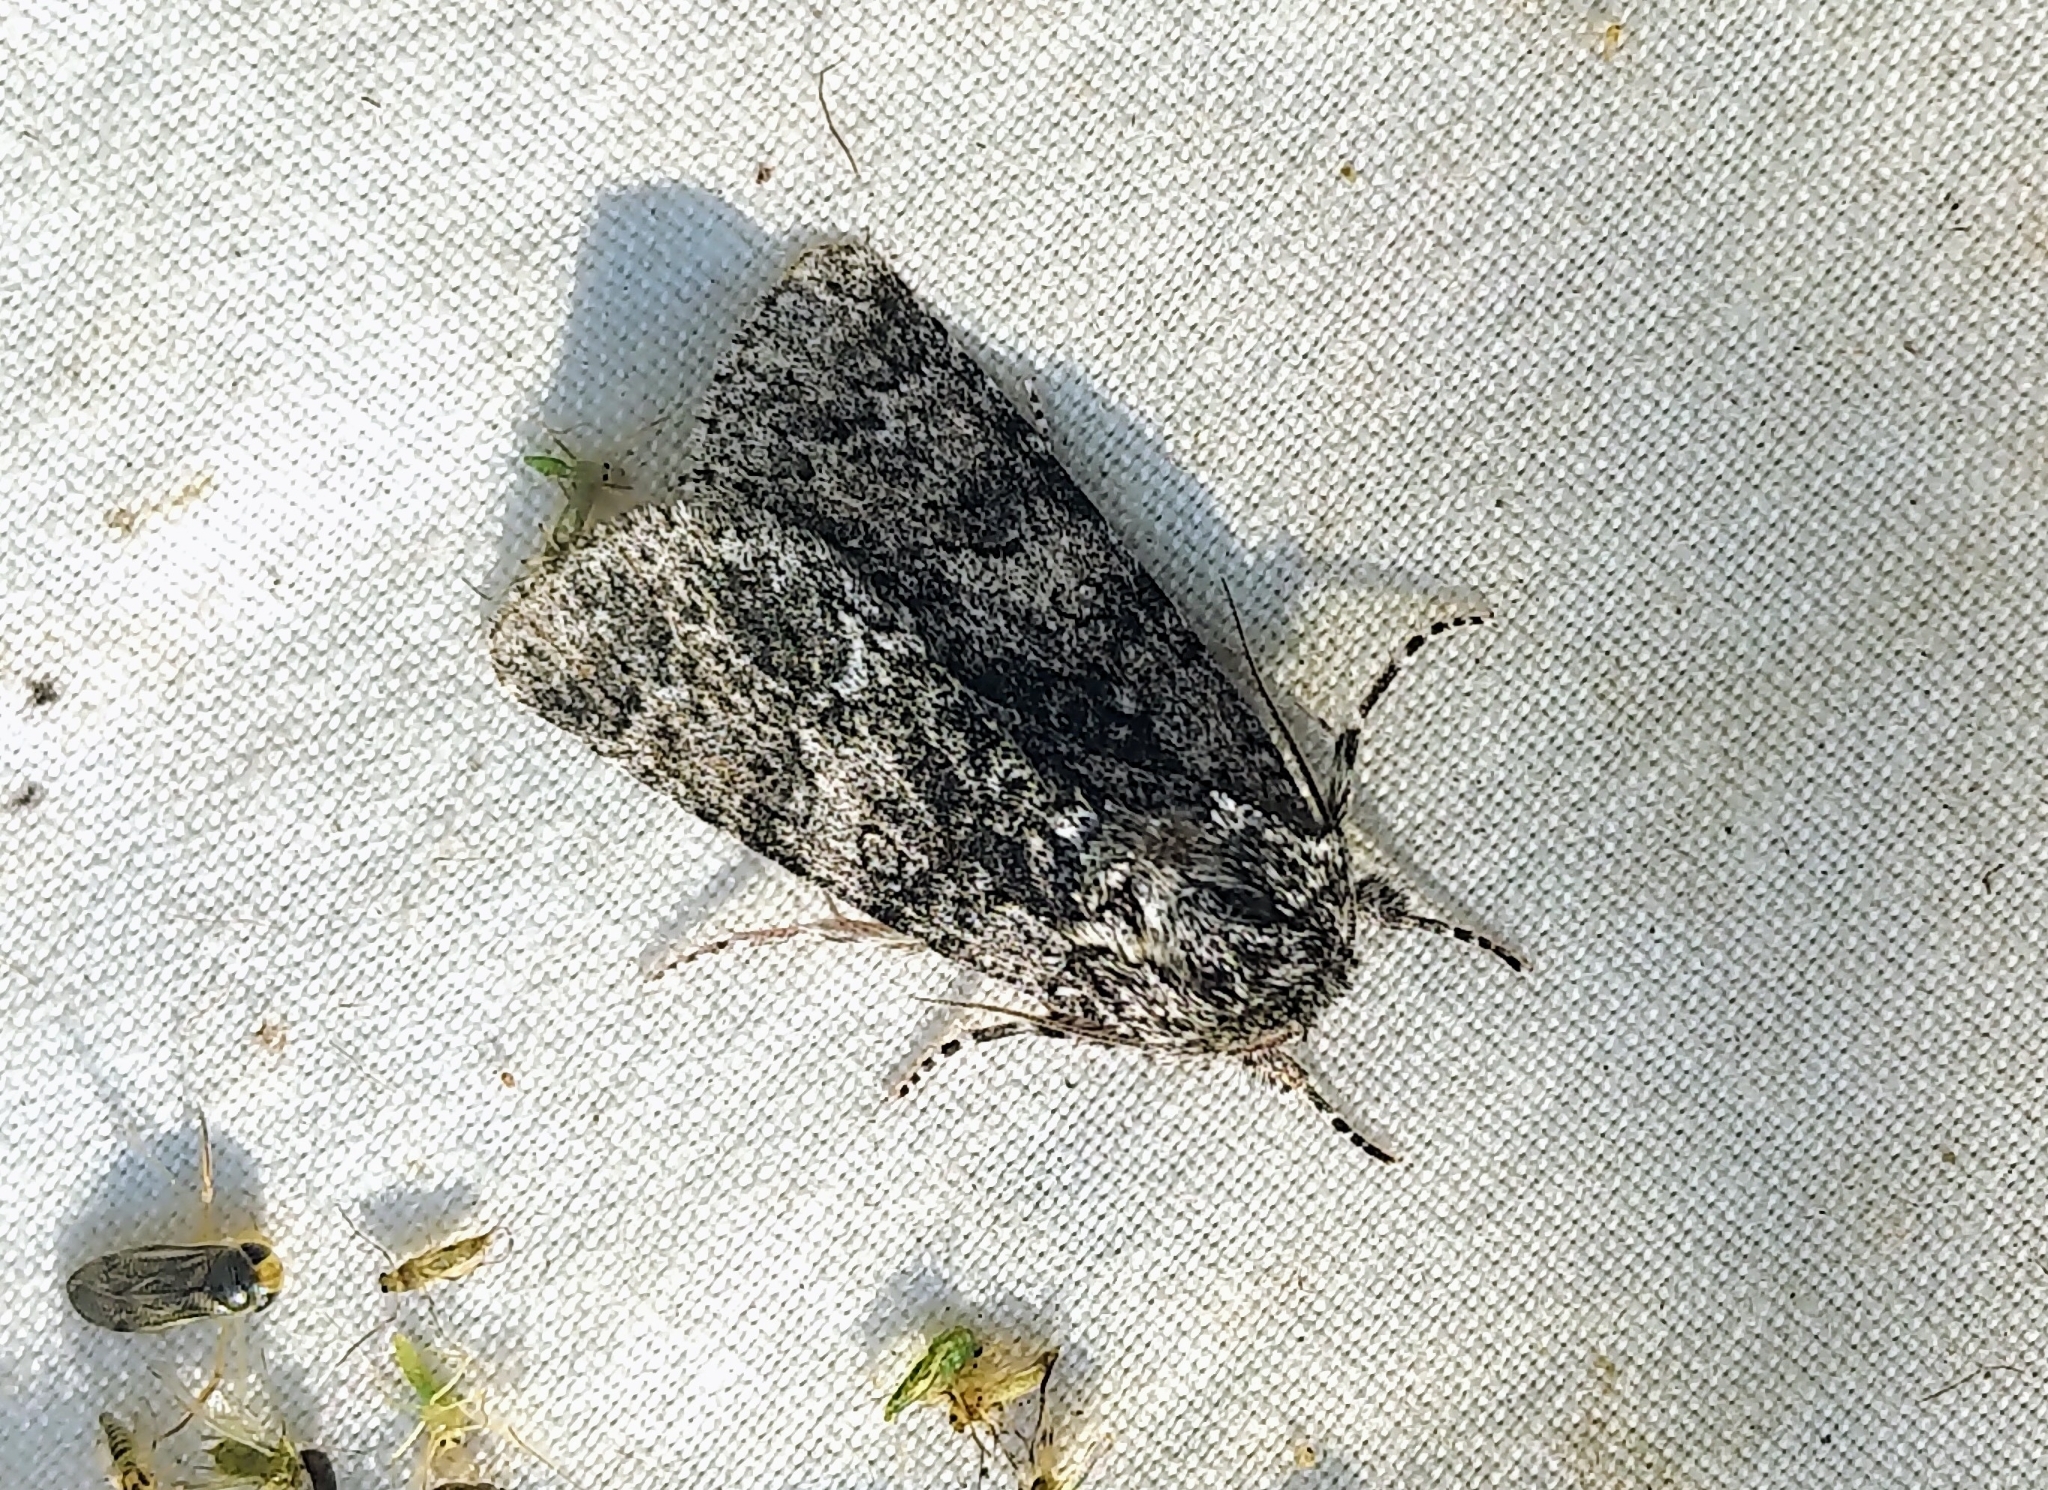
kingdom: Animalia
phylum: Arthropoda
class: Insecta
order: Lepidoptera
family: Noctuidae
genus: Acronicta
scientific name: Acronicta impressa
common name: Impressed dagger
